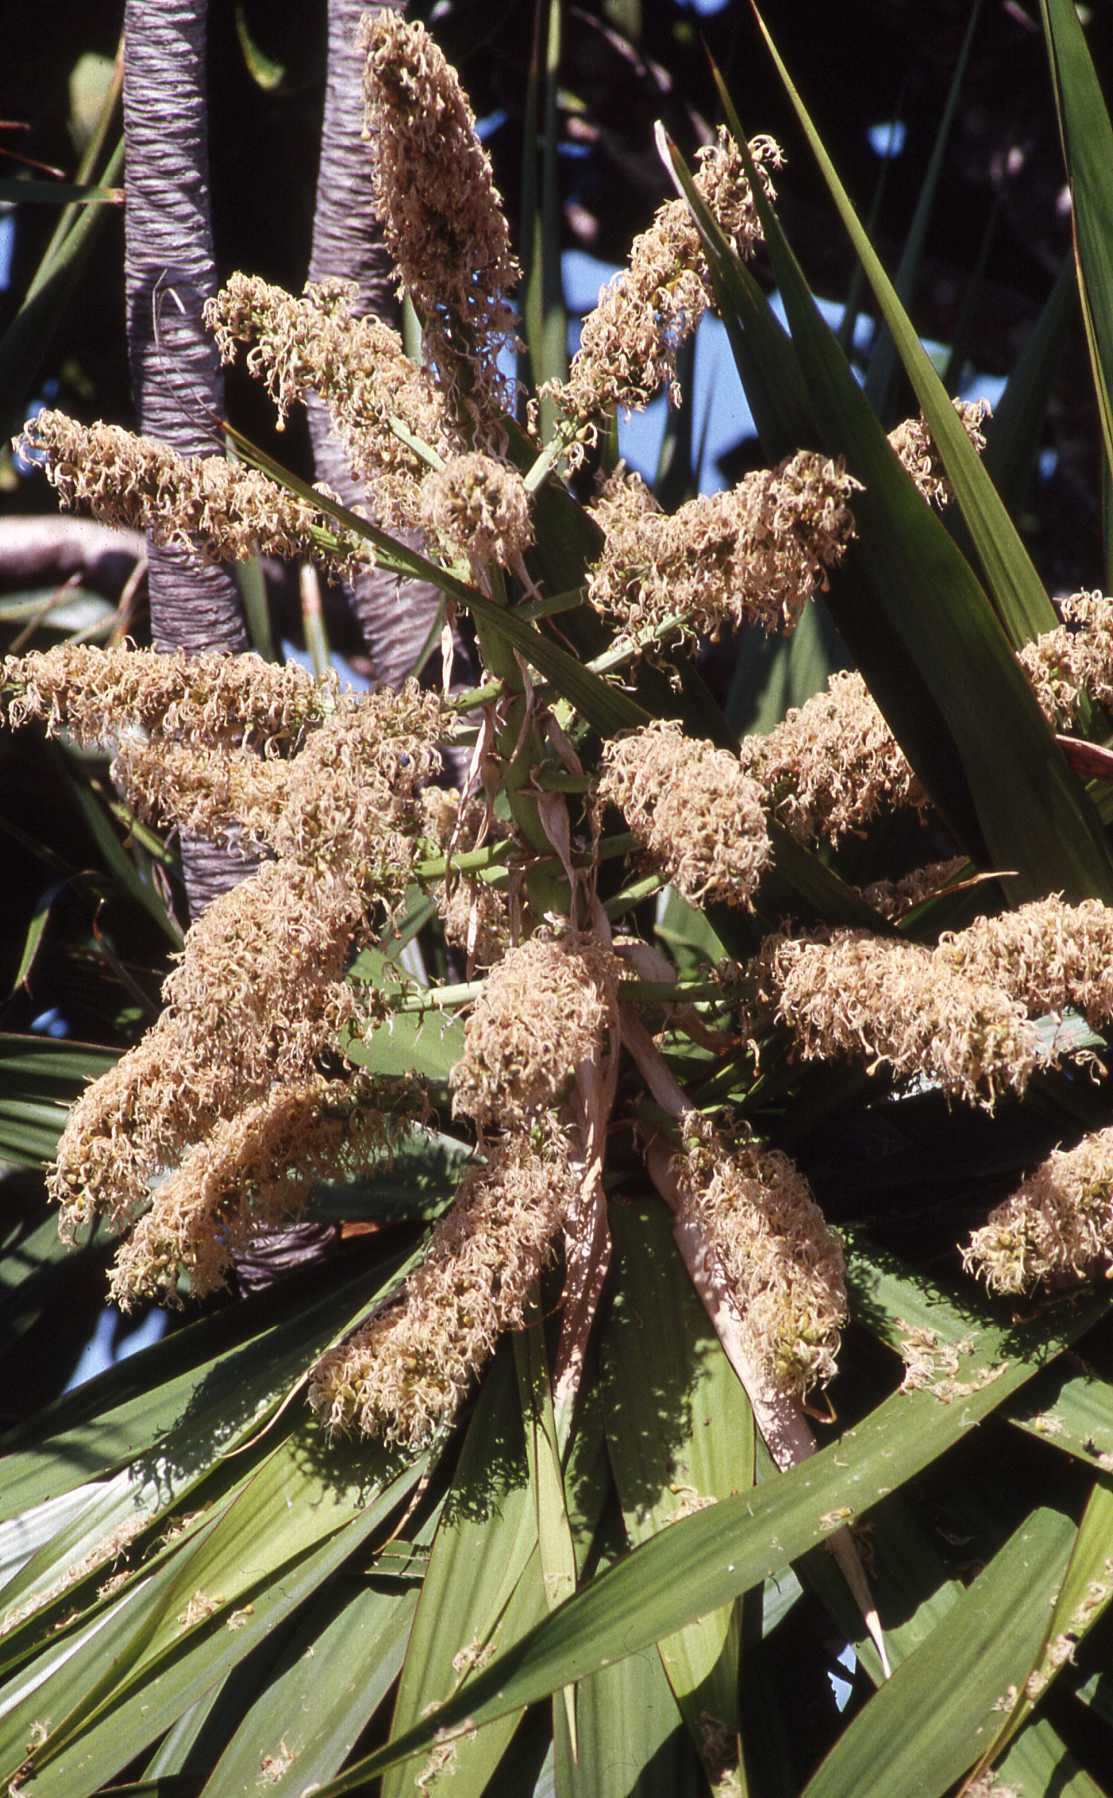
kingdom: Plantae
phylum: Tracheophyta
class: Liliopsida
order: Asparagales
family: Asparagaceae
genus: Dracaena
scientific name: Dracaena concinna
